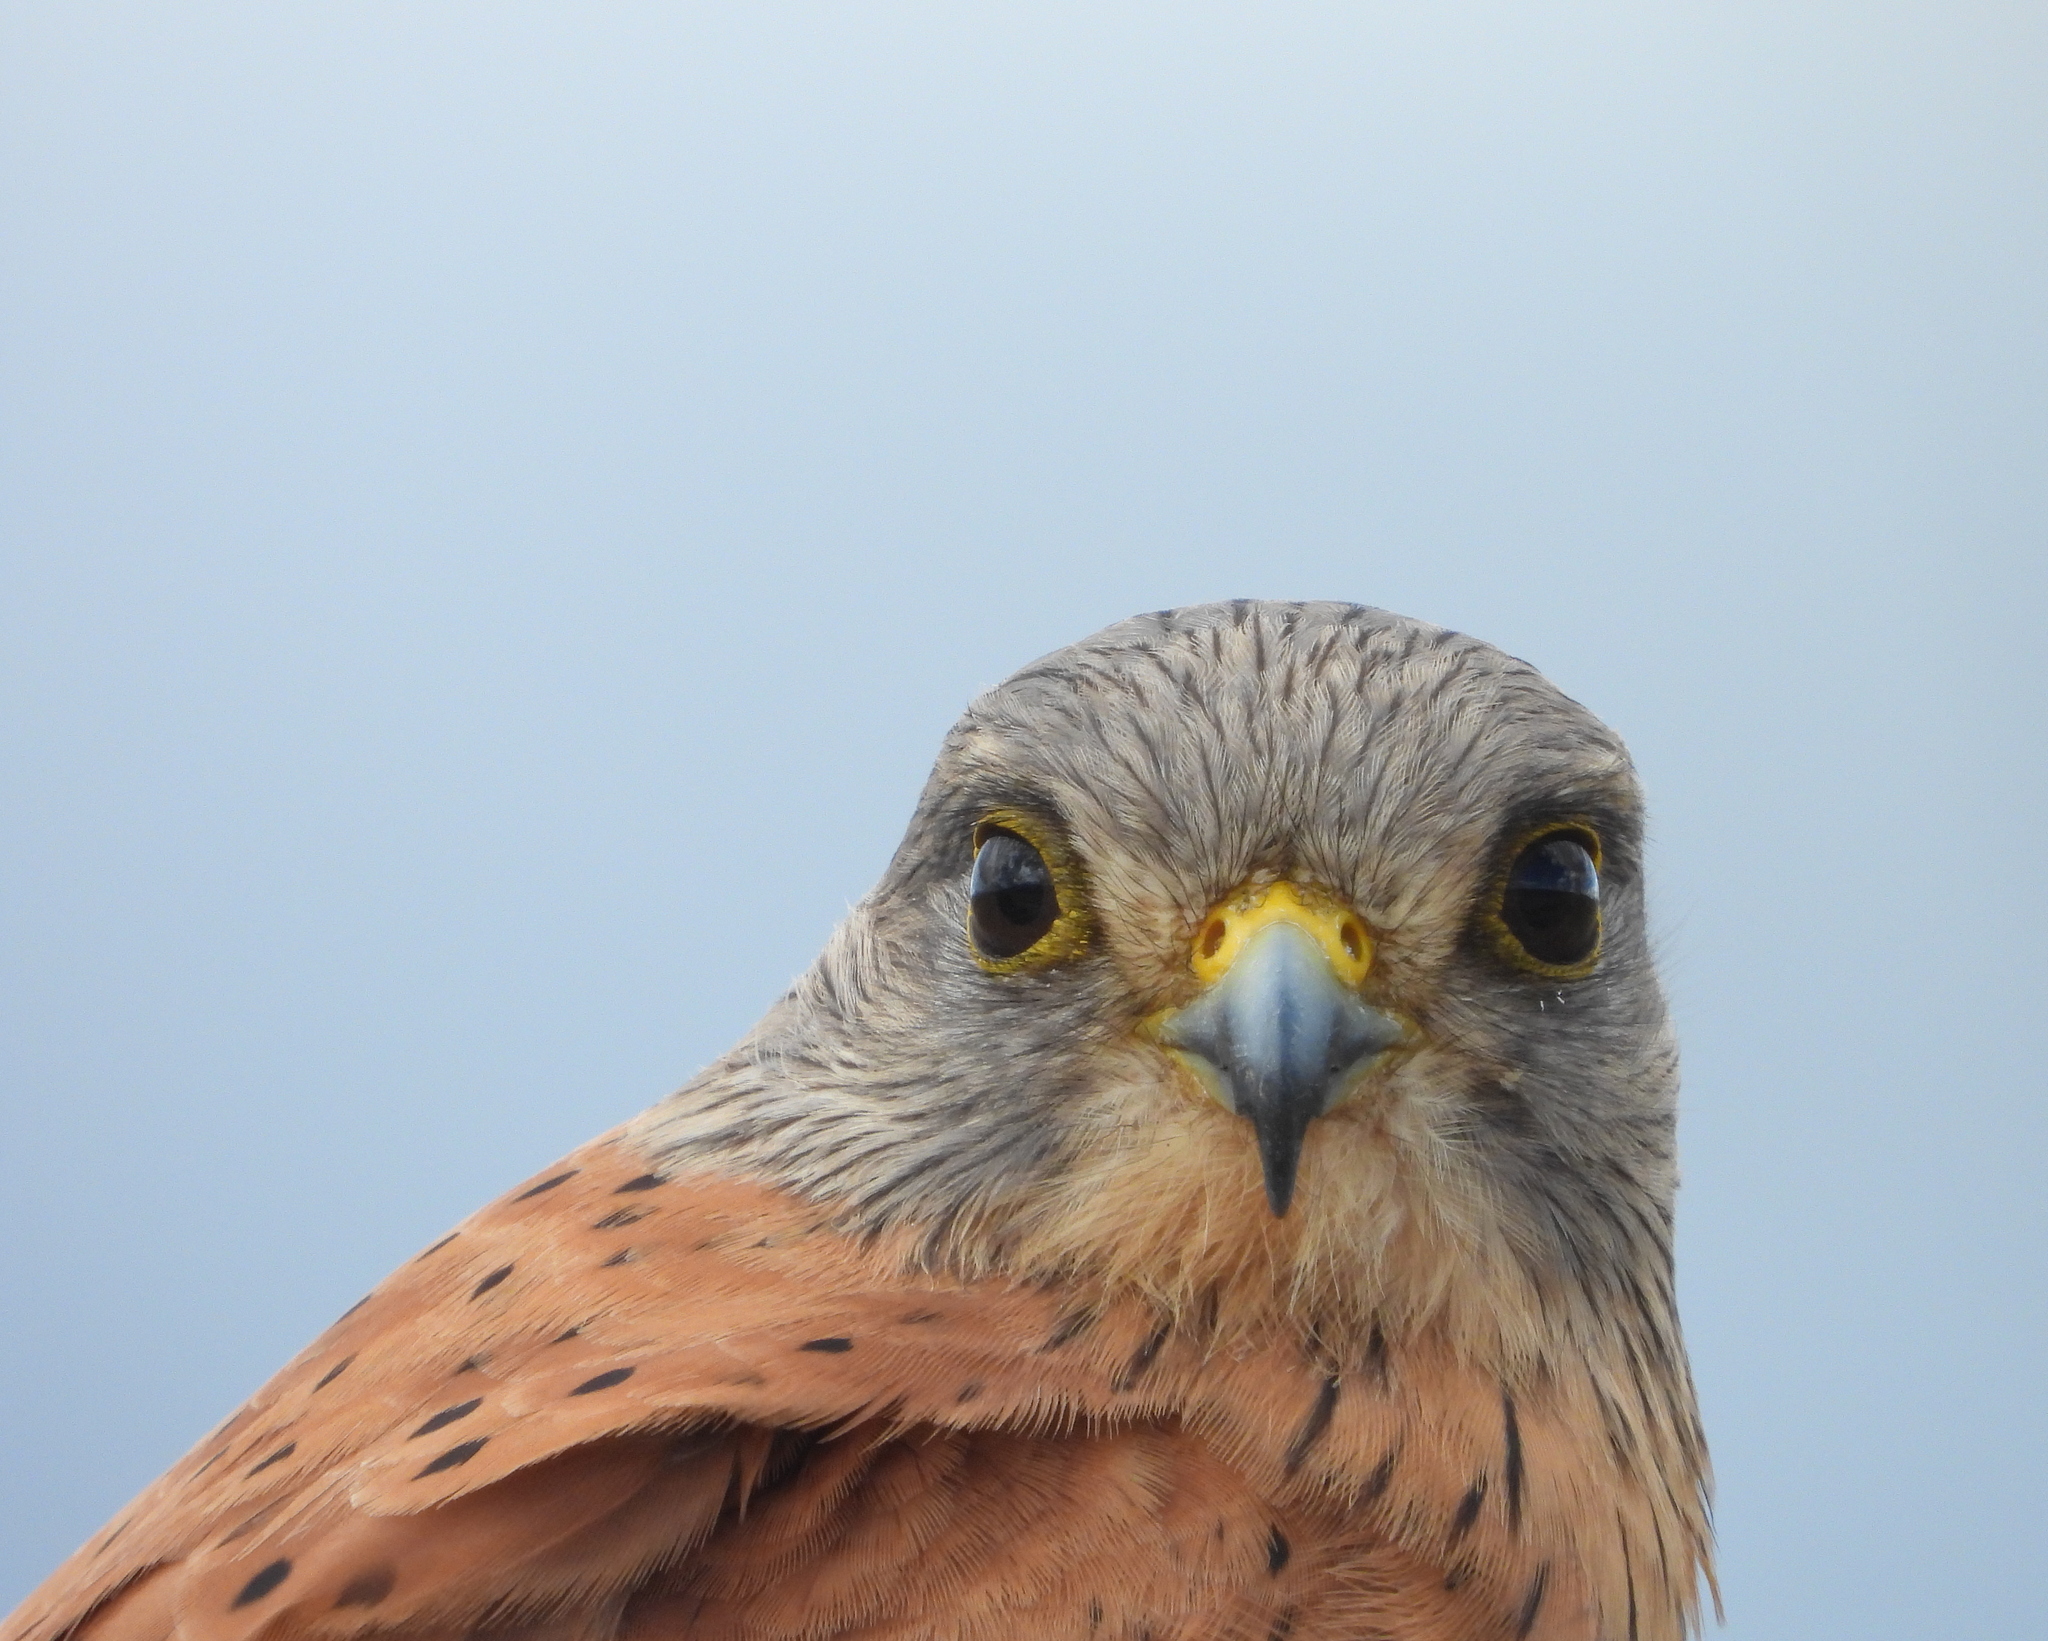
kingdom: Animalia
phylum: Chordata
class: Aves
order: Falconiformes
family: Falconidae
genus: Falco
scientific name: Falco rupicolus
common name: Rock kestrel
